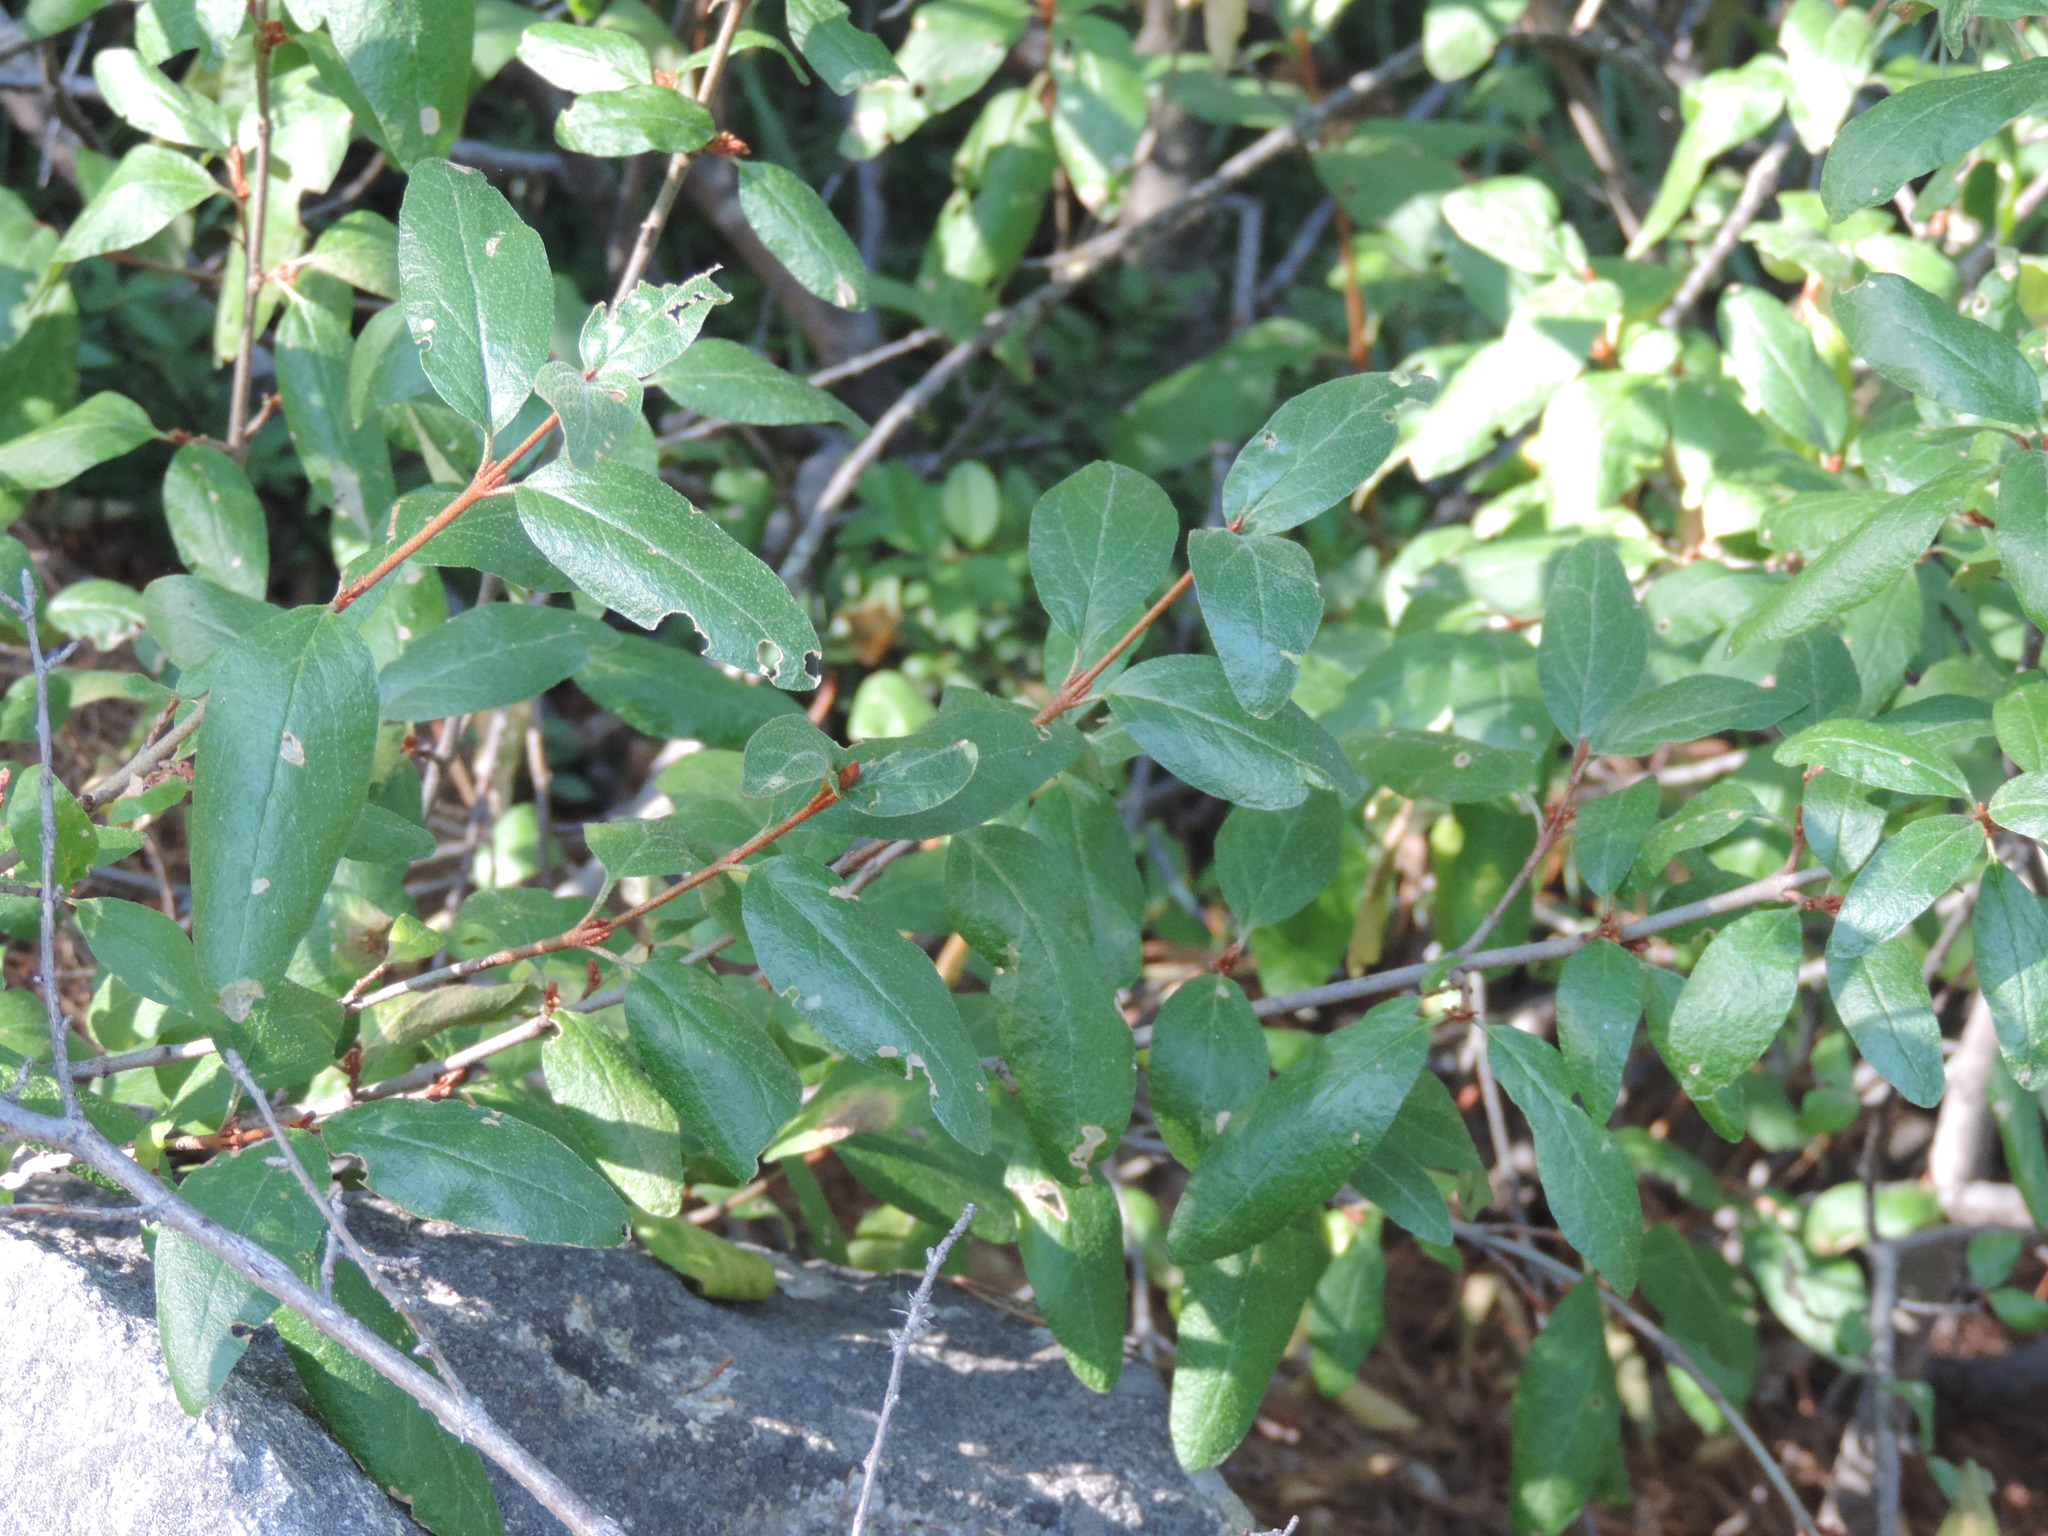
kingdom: Plantae
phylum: Tracheophyta
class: Magnoliopsida
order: Rosales
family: Elaeagnaceae
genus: Shepherdia
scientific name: Shepherdia canadensis
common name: Soapberry
